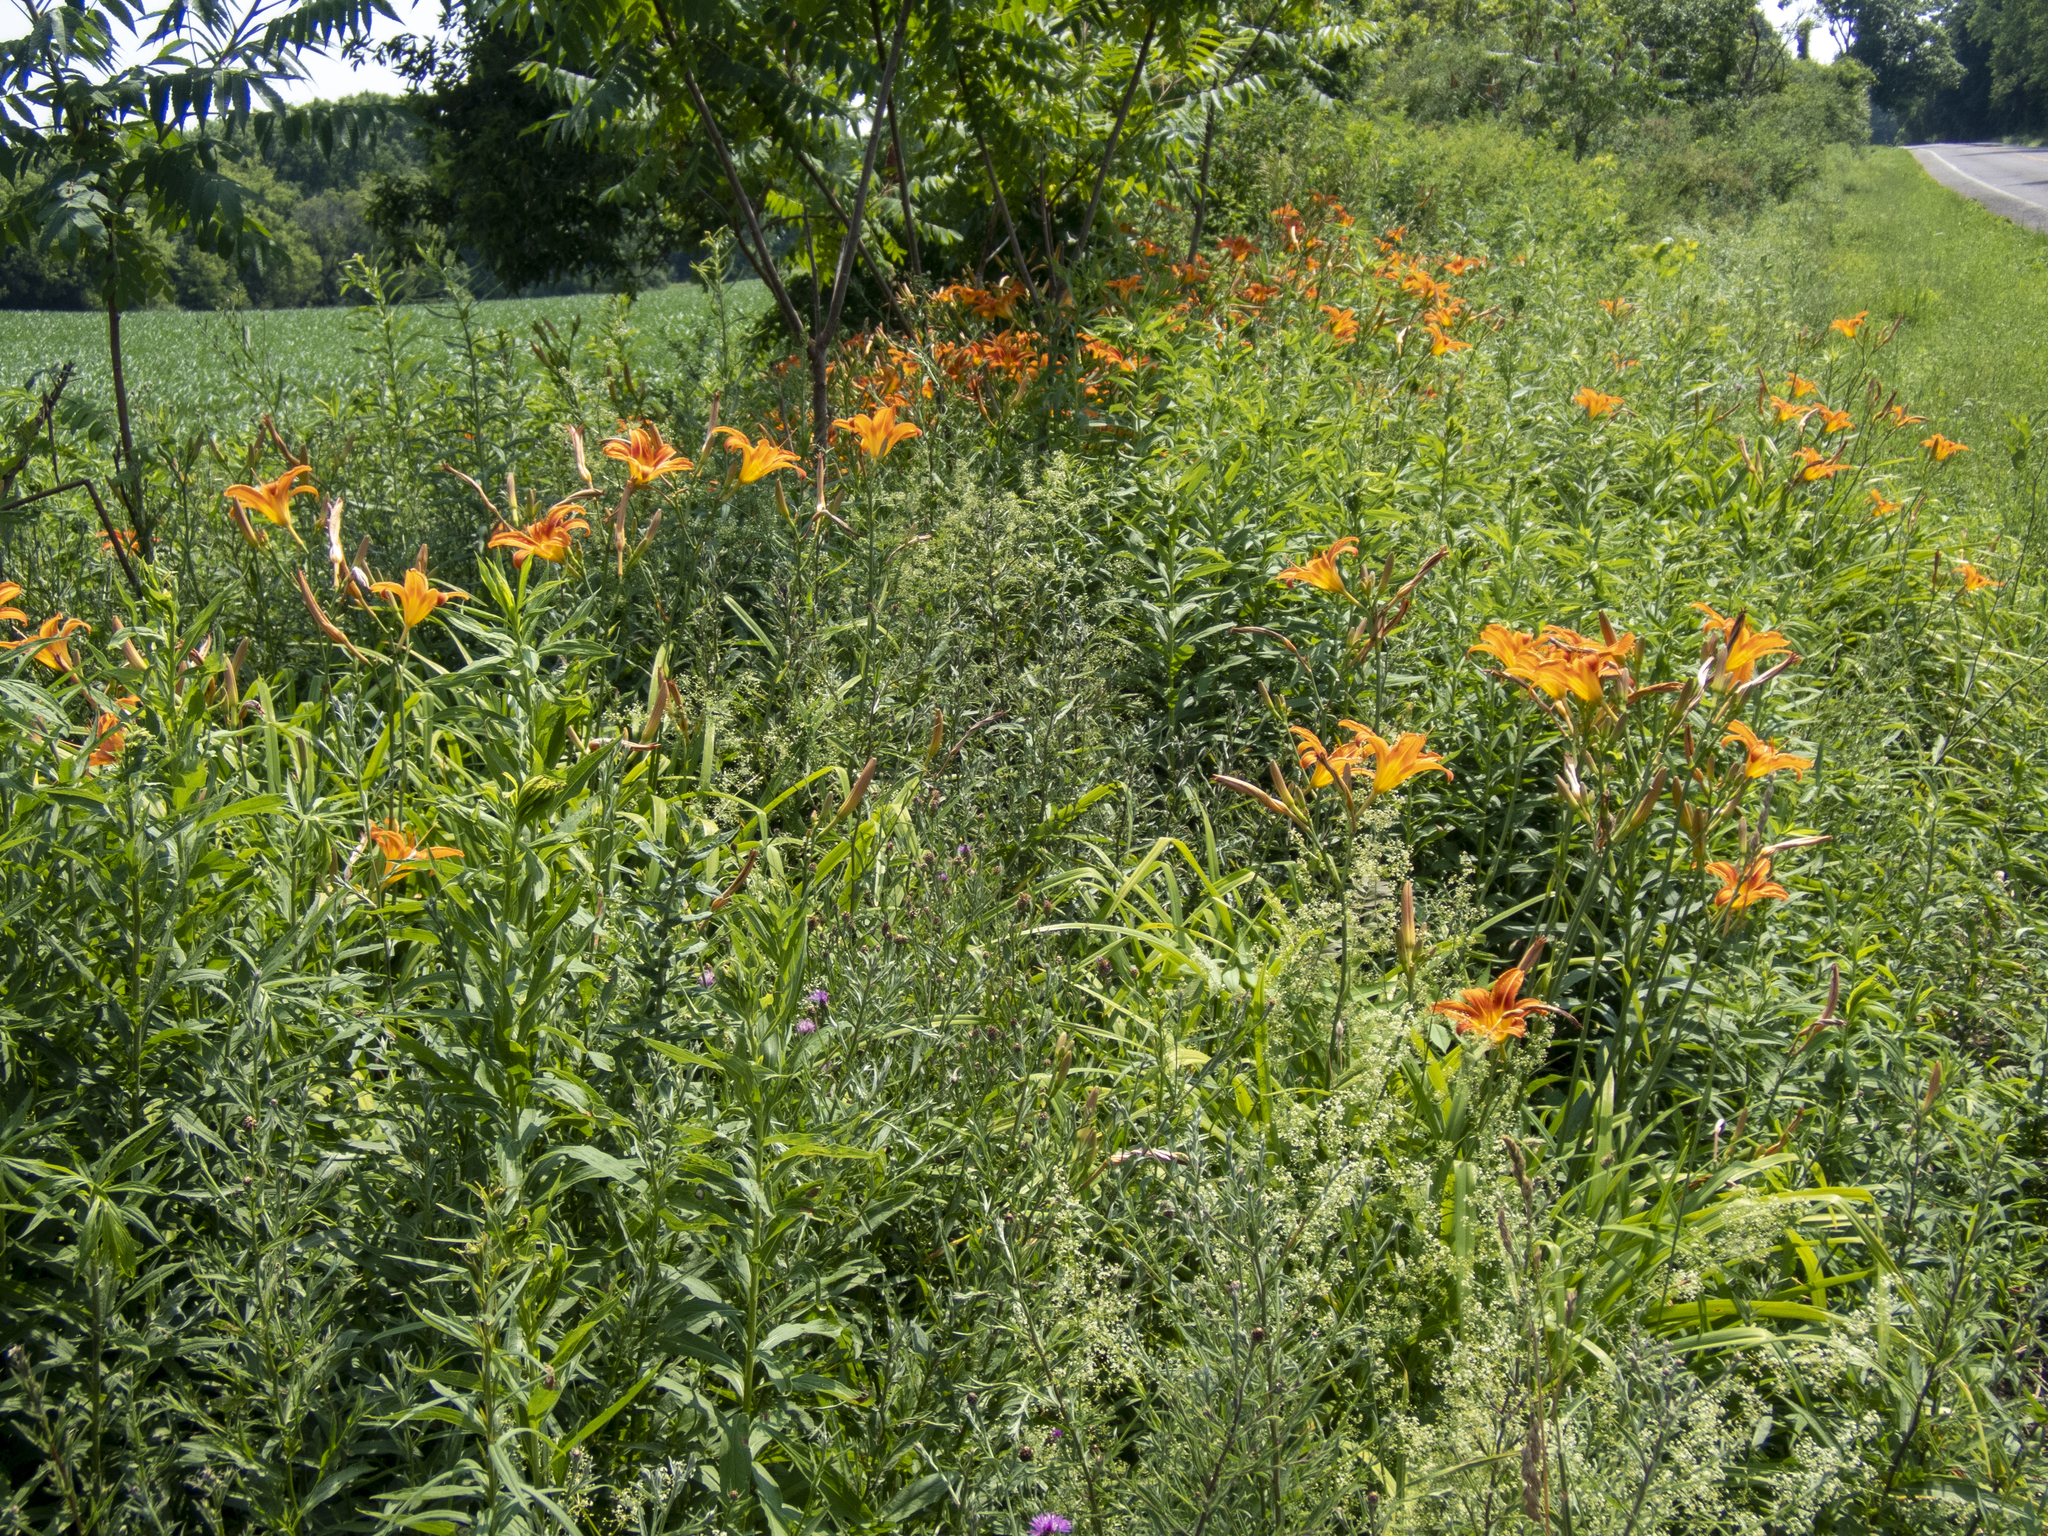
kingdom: Plantae
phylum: Tracheophyta
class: Liliopsida
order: Asparagales
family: Asphodelaceae
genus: Hemerocallis
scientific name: Hemerocallis fulva
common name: Orange day-lily
